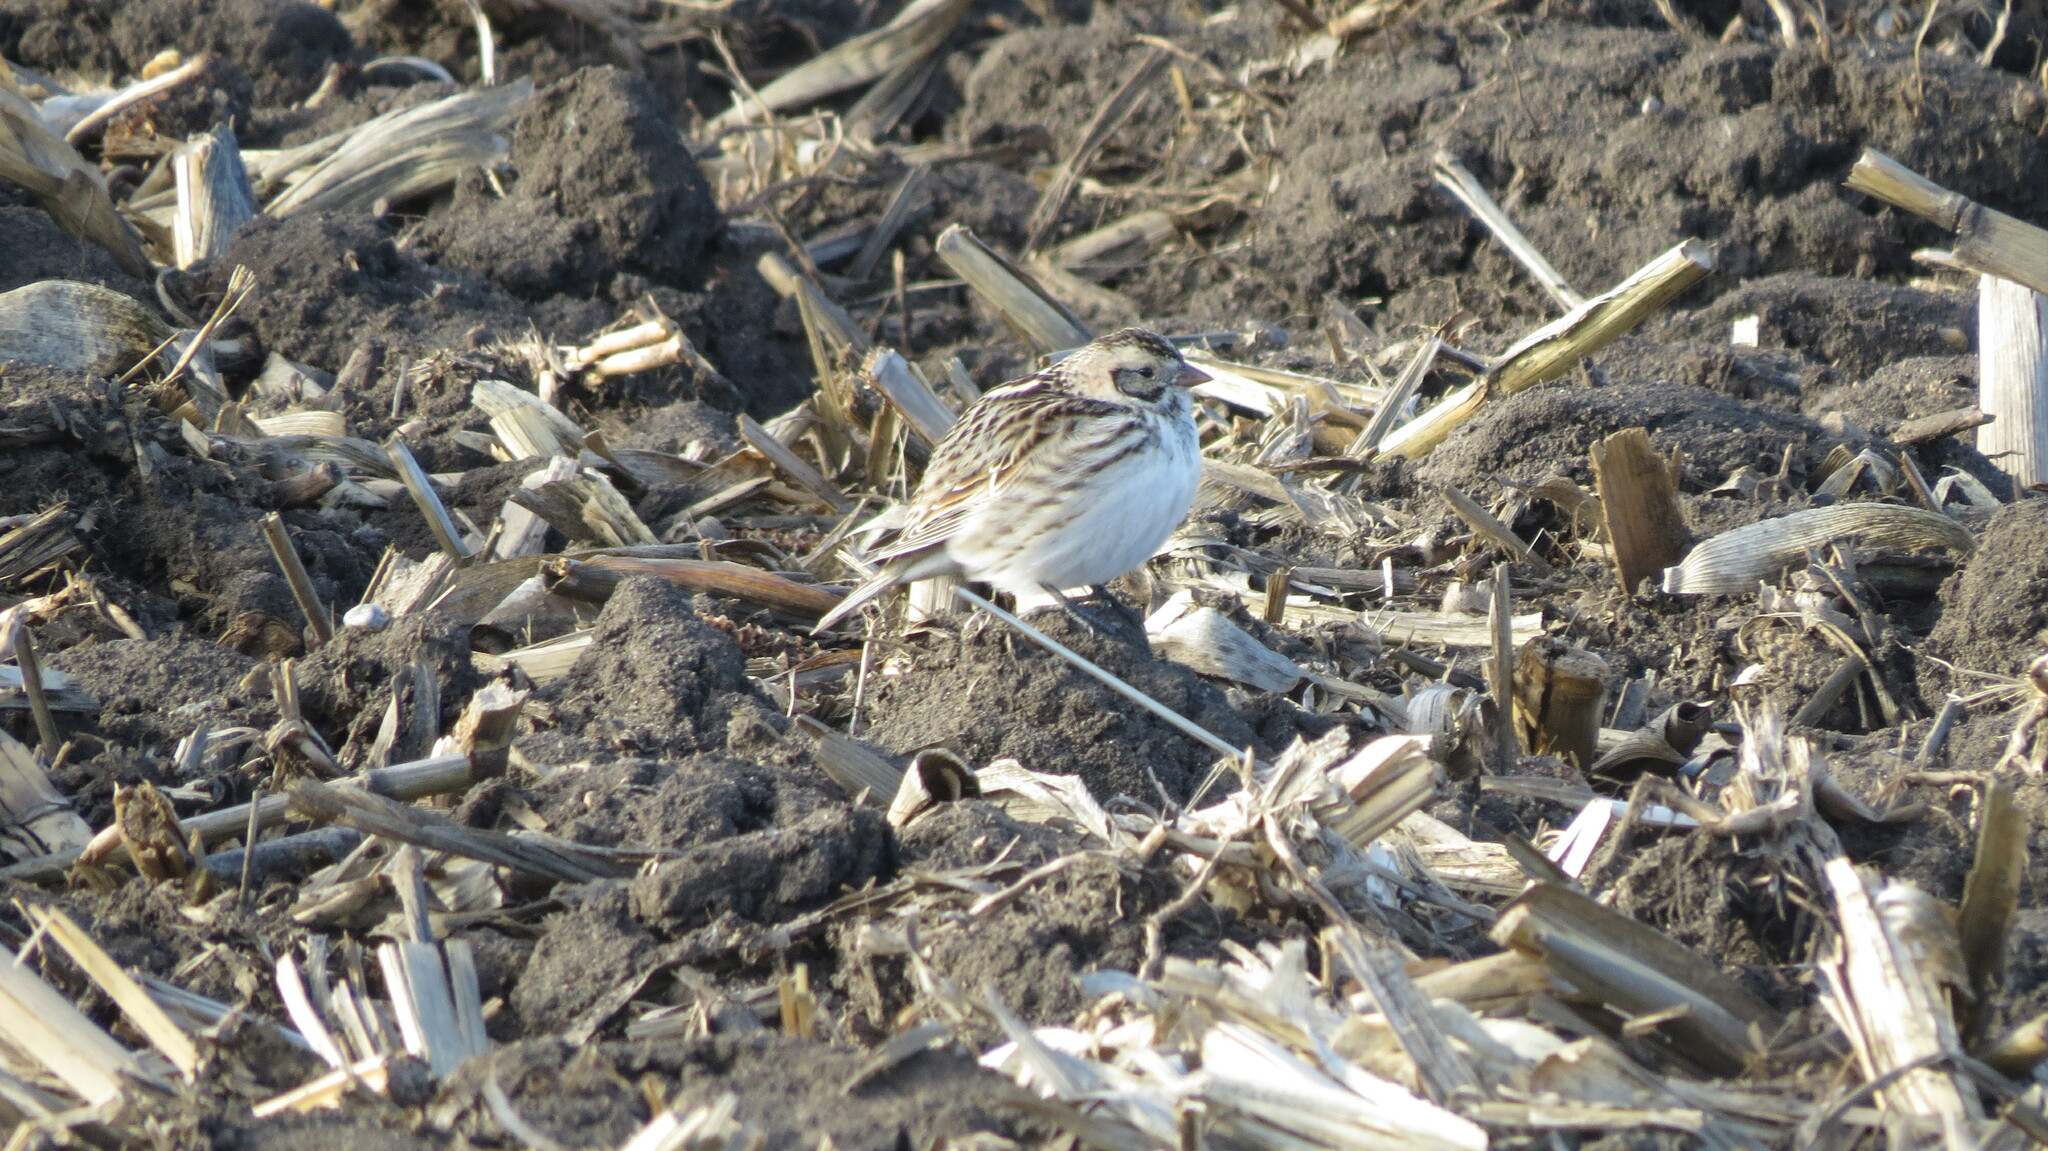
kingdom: Animalia
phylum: Chordata
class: Aves
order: Passeriformes
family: Calcariidae
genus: Calcarius
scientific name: Calcarius lapponicus
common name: Lapland longspur
